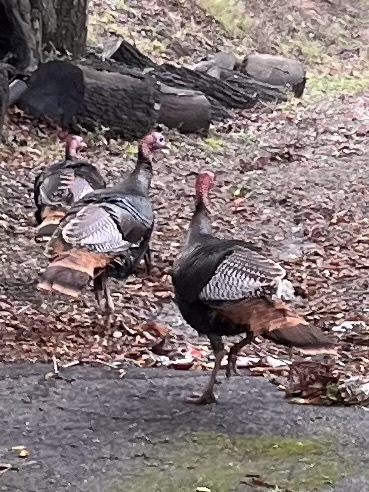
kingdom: Animalia
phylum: Chordata
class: Aves
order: Galliformes
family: Phasianidae
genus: Meleagris
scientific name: Meleagris gallopavo
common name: Wild turkey
